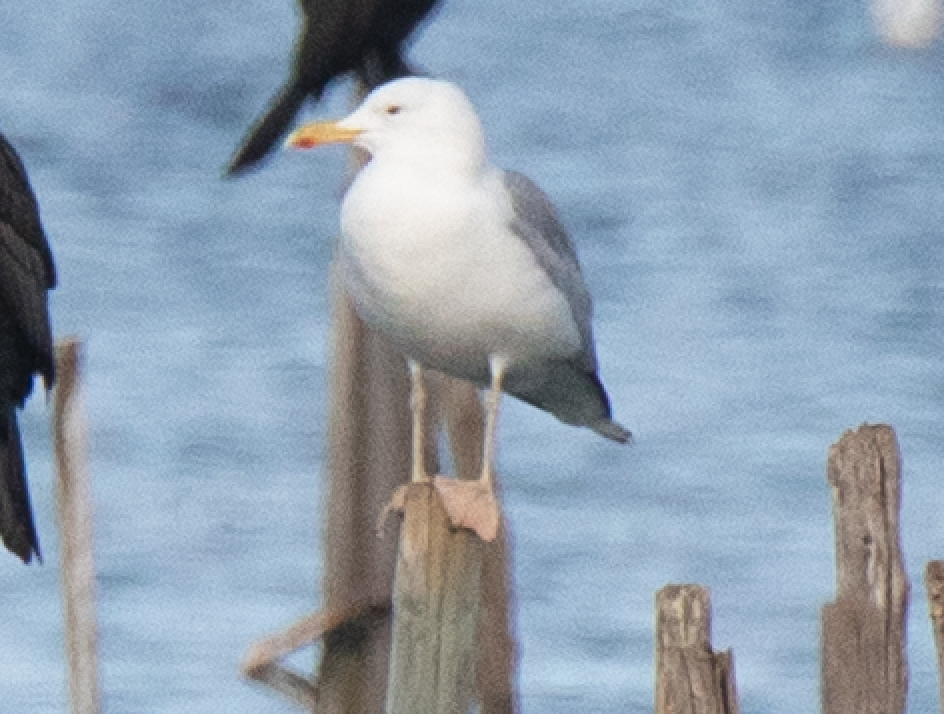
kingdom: Animalia
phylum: Chordata
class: Aves
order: Charadriiformes
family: Laridae
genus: Larus
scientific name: Larus cachinnans
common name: Caspian gull
